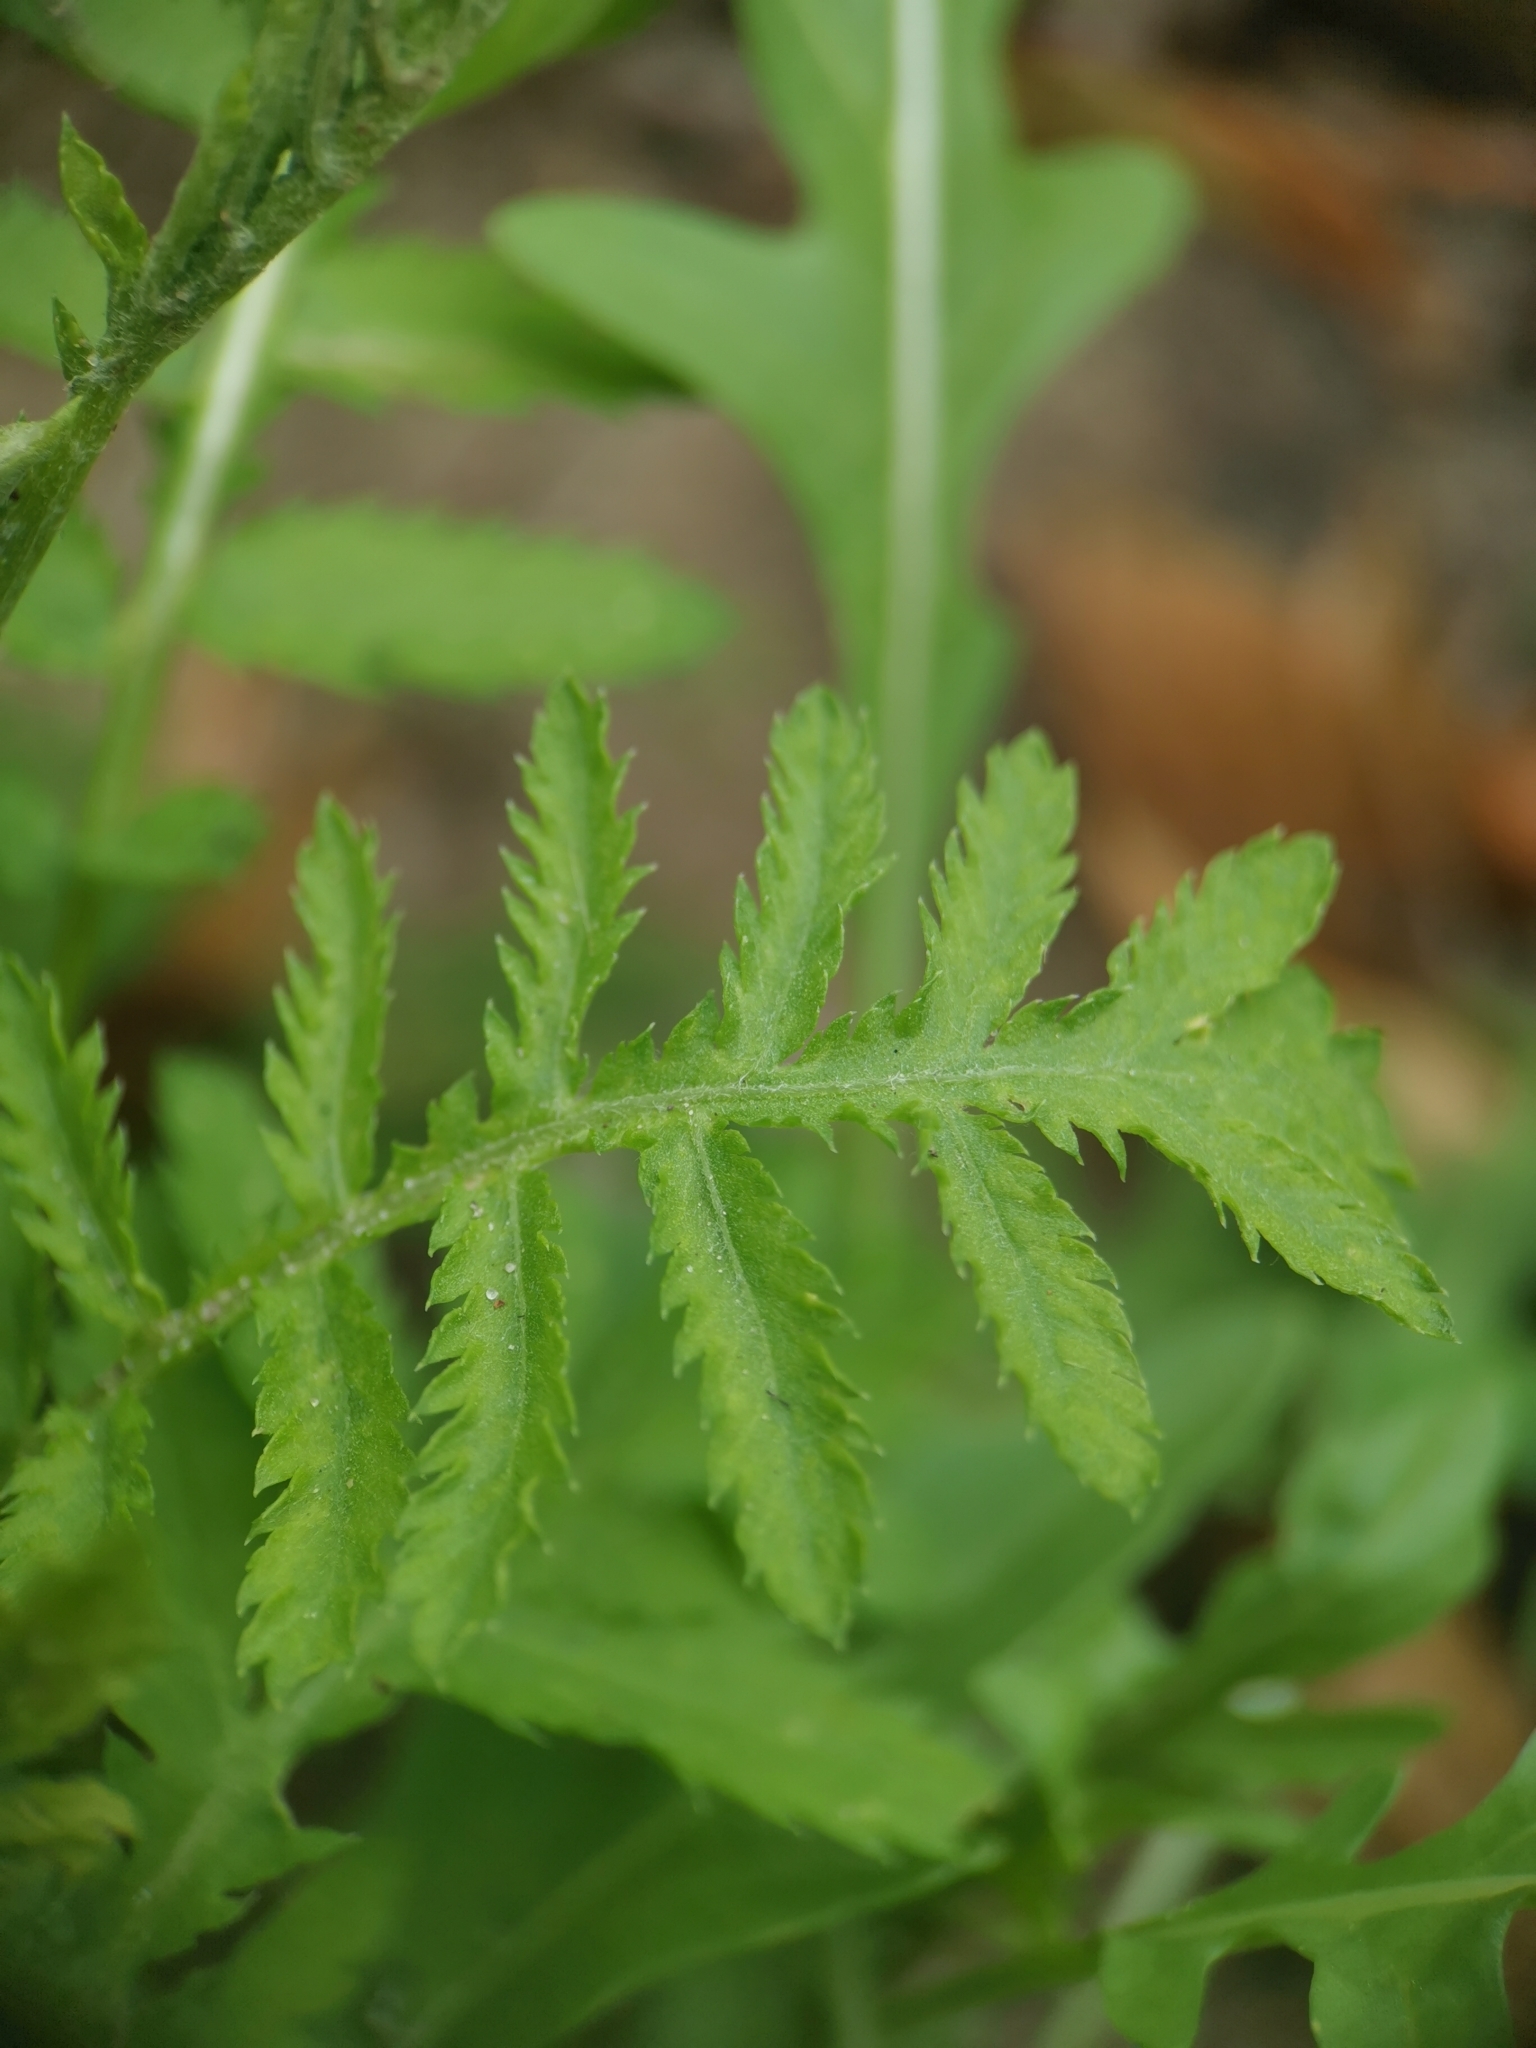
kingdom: Plantae
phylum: Tracheophyta
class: Magnoliopsida
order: Asterales
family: Asteraceae
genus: Tanacetum
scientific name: Tanacetum vulgare
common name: Common tansy
